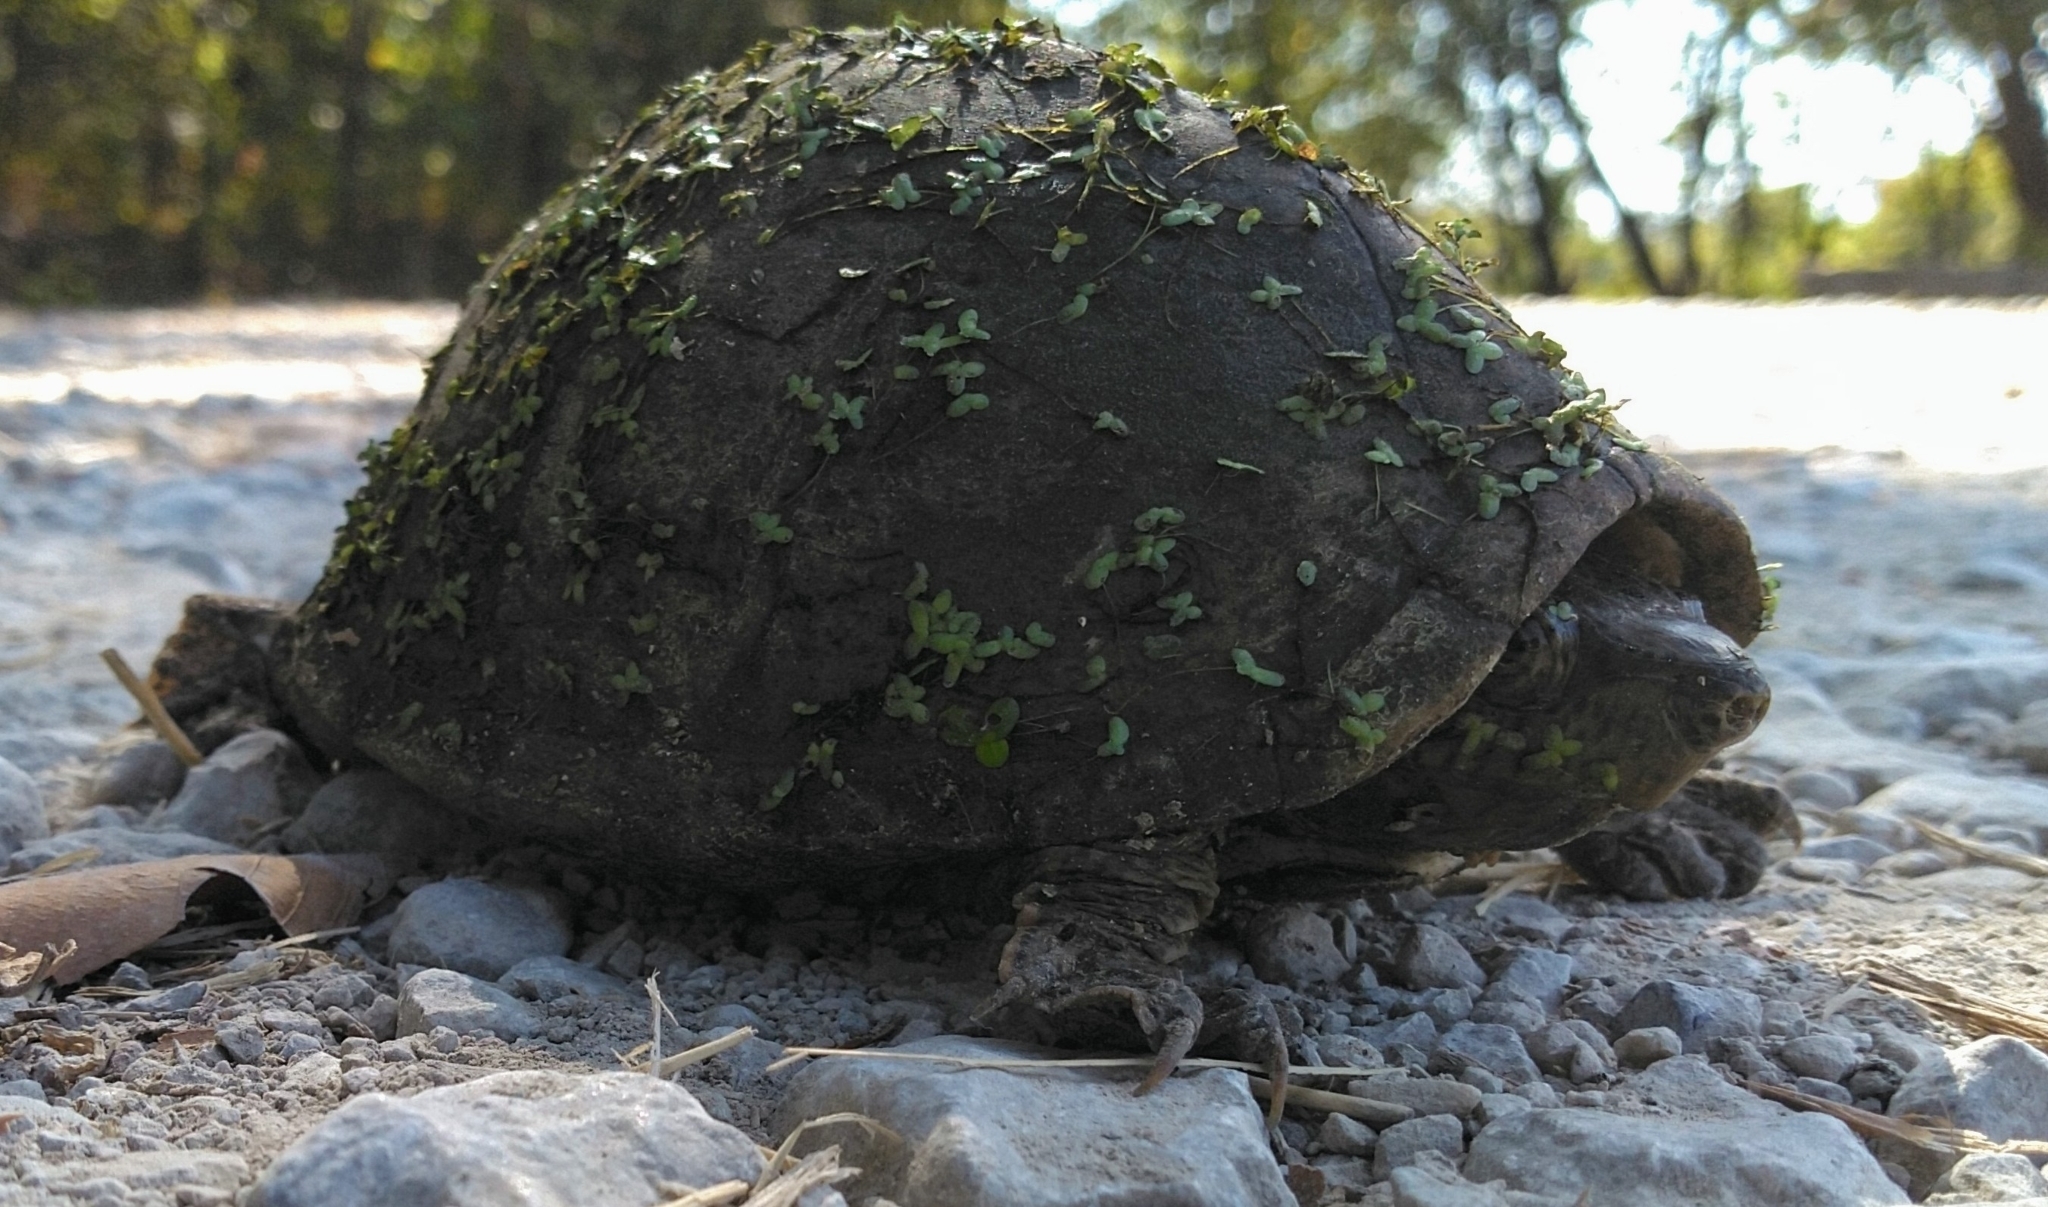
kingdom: Animalia
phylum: Chordata
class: Testudines
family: Kinosternidae
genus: Sternotherus
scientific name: Sternotherus carinatus
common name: Razor-backed musk turtle
